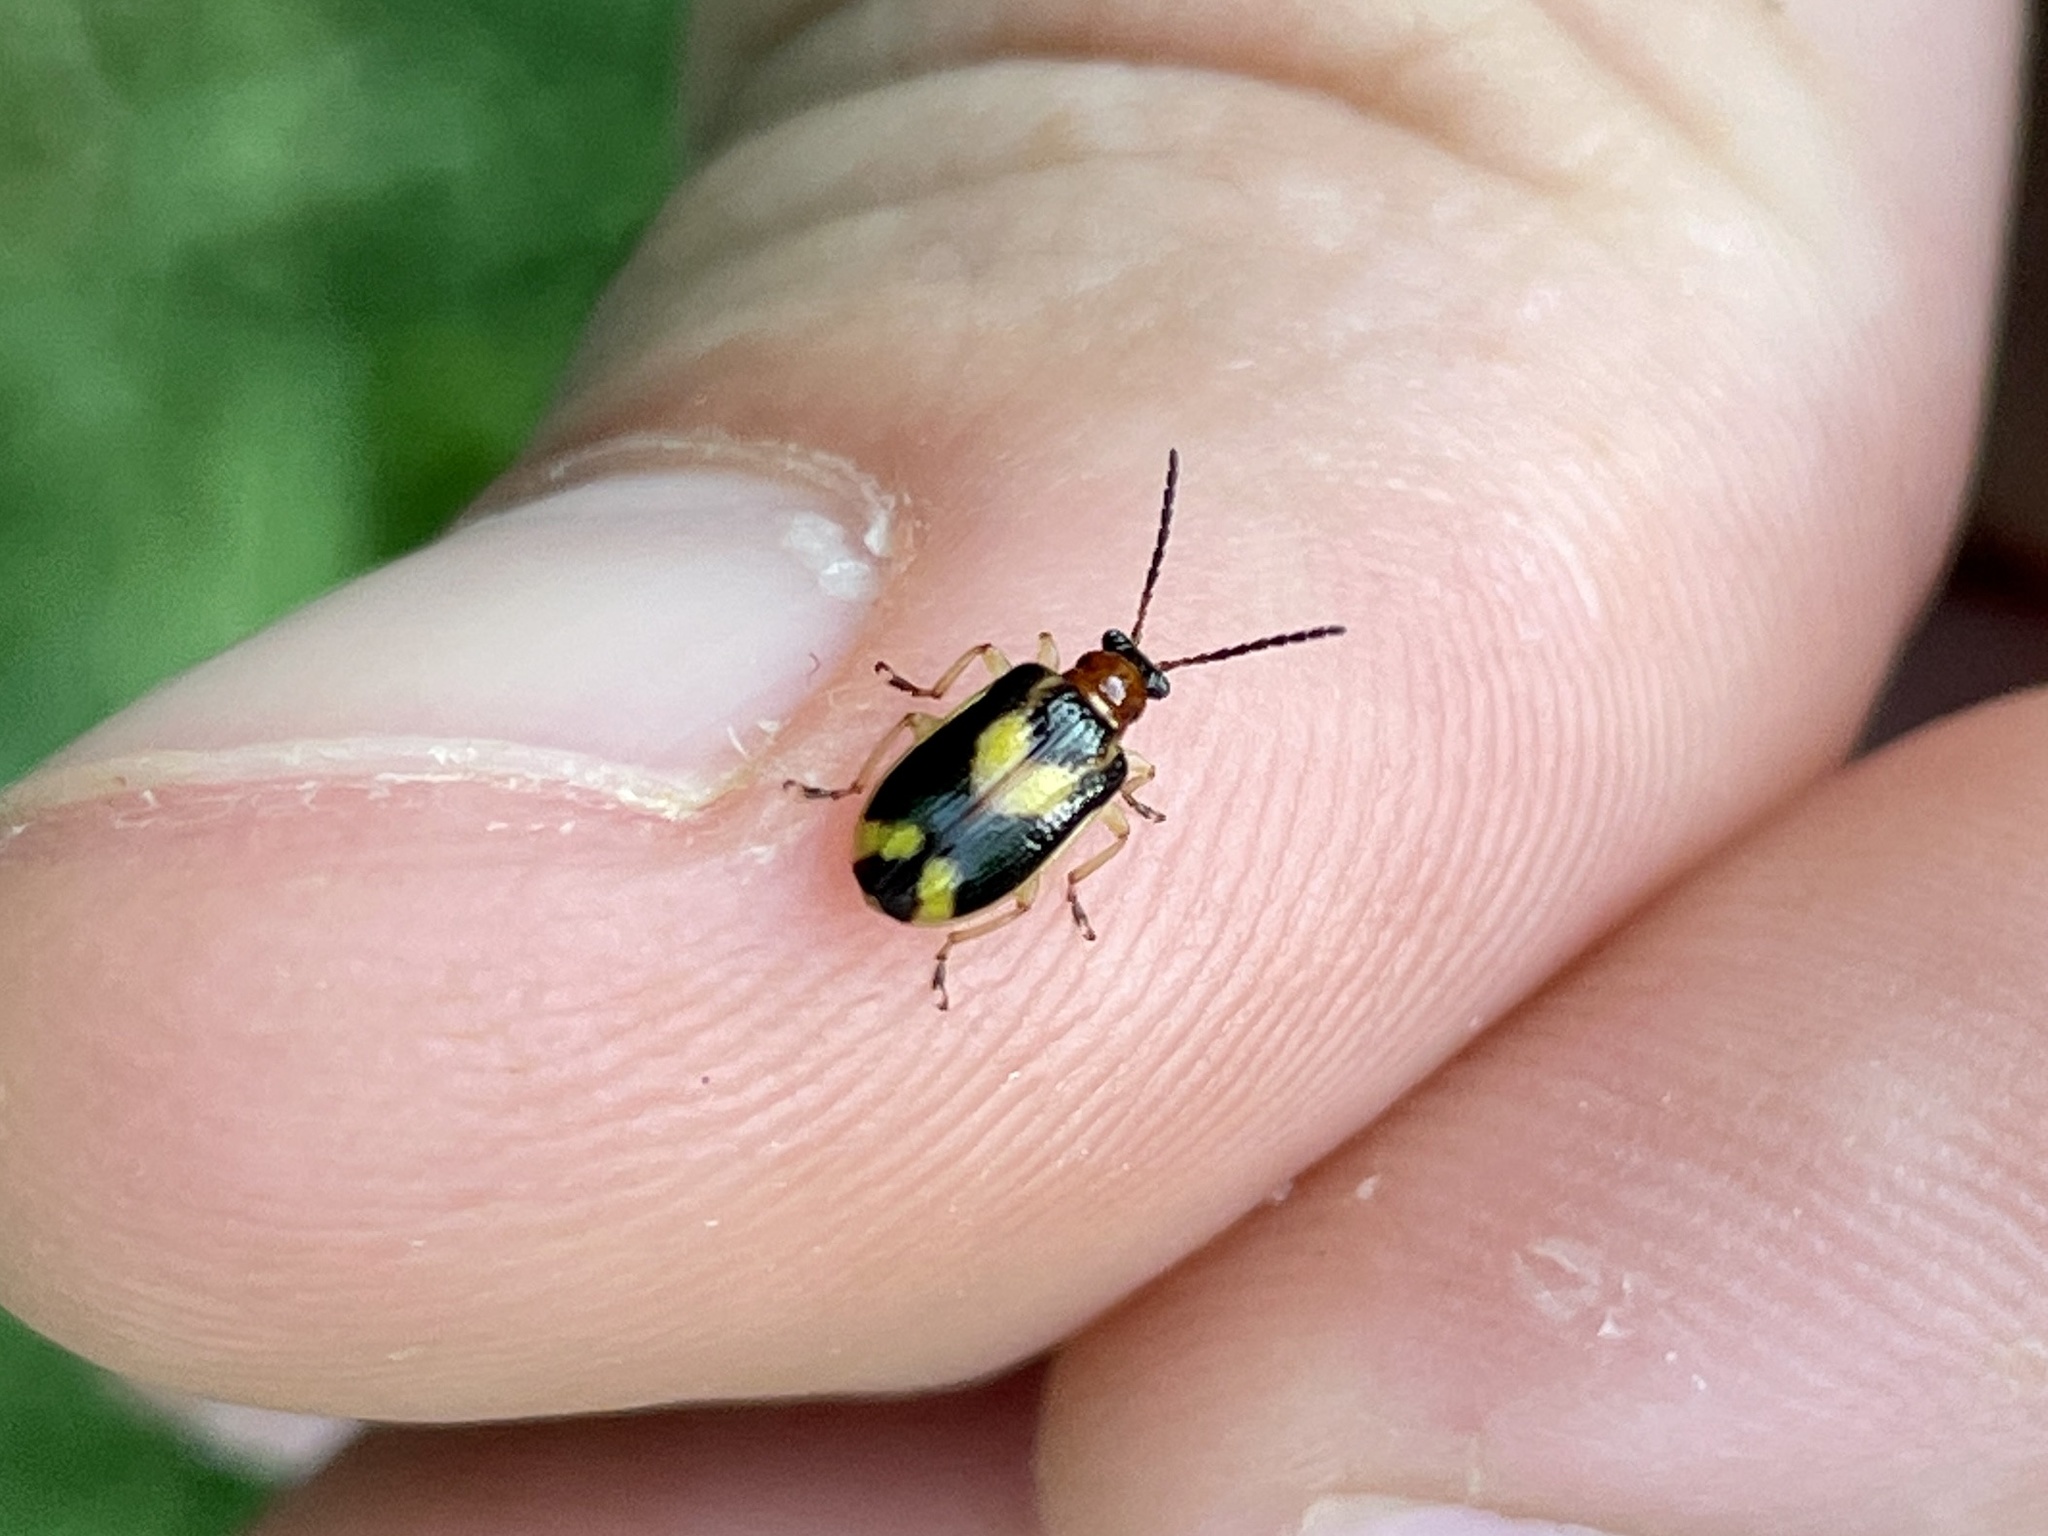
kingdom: Animalia
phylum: Arthropoda
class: Insecta
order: Coleoptera
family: Chrysomelidae
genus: Lema
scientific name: Lema opulenta
